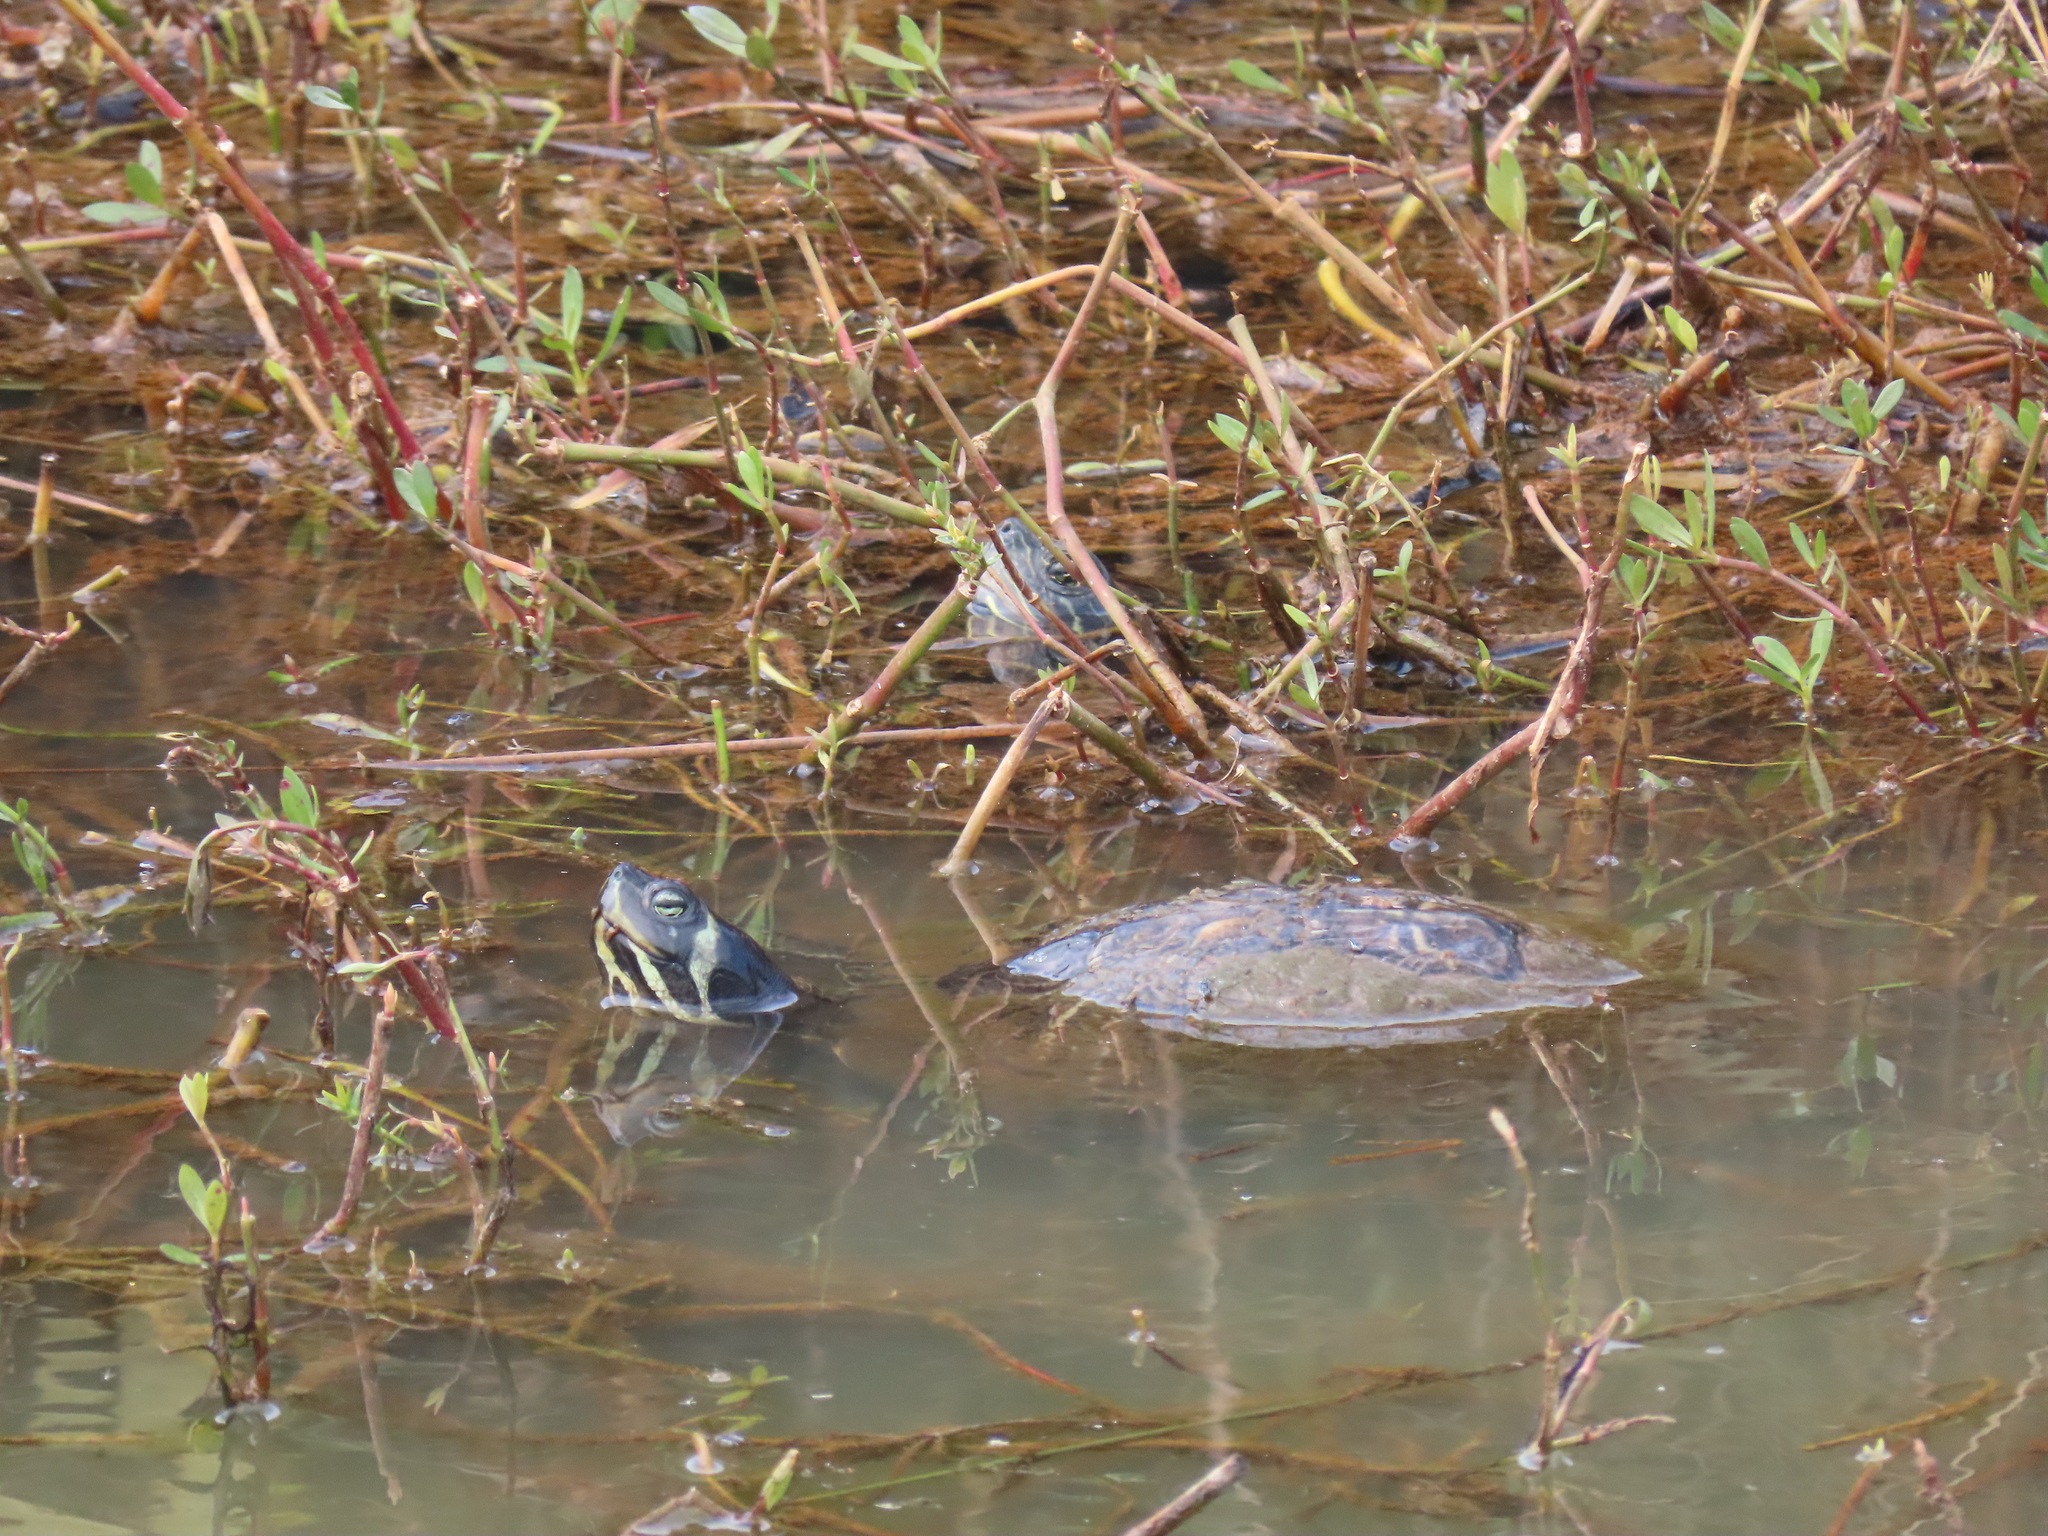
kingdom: Animalia
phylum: Chordata
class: Testudines
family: Emydidae
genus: Trachemys
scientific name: Trachemys scripta
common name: Slider
